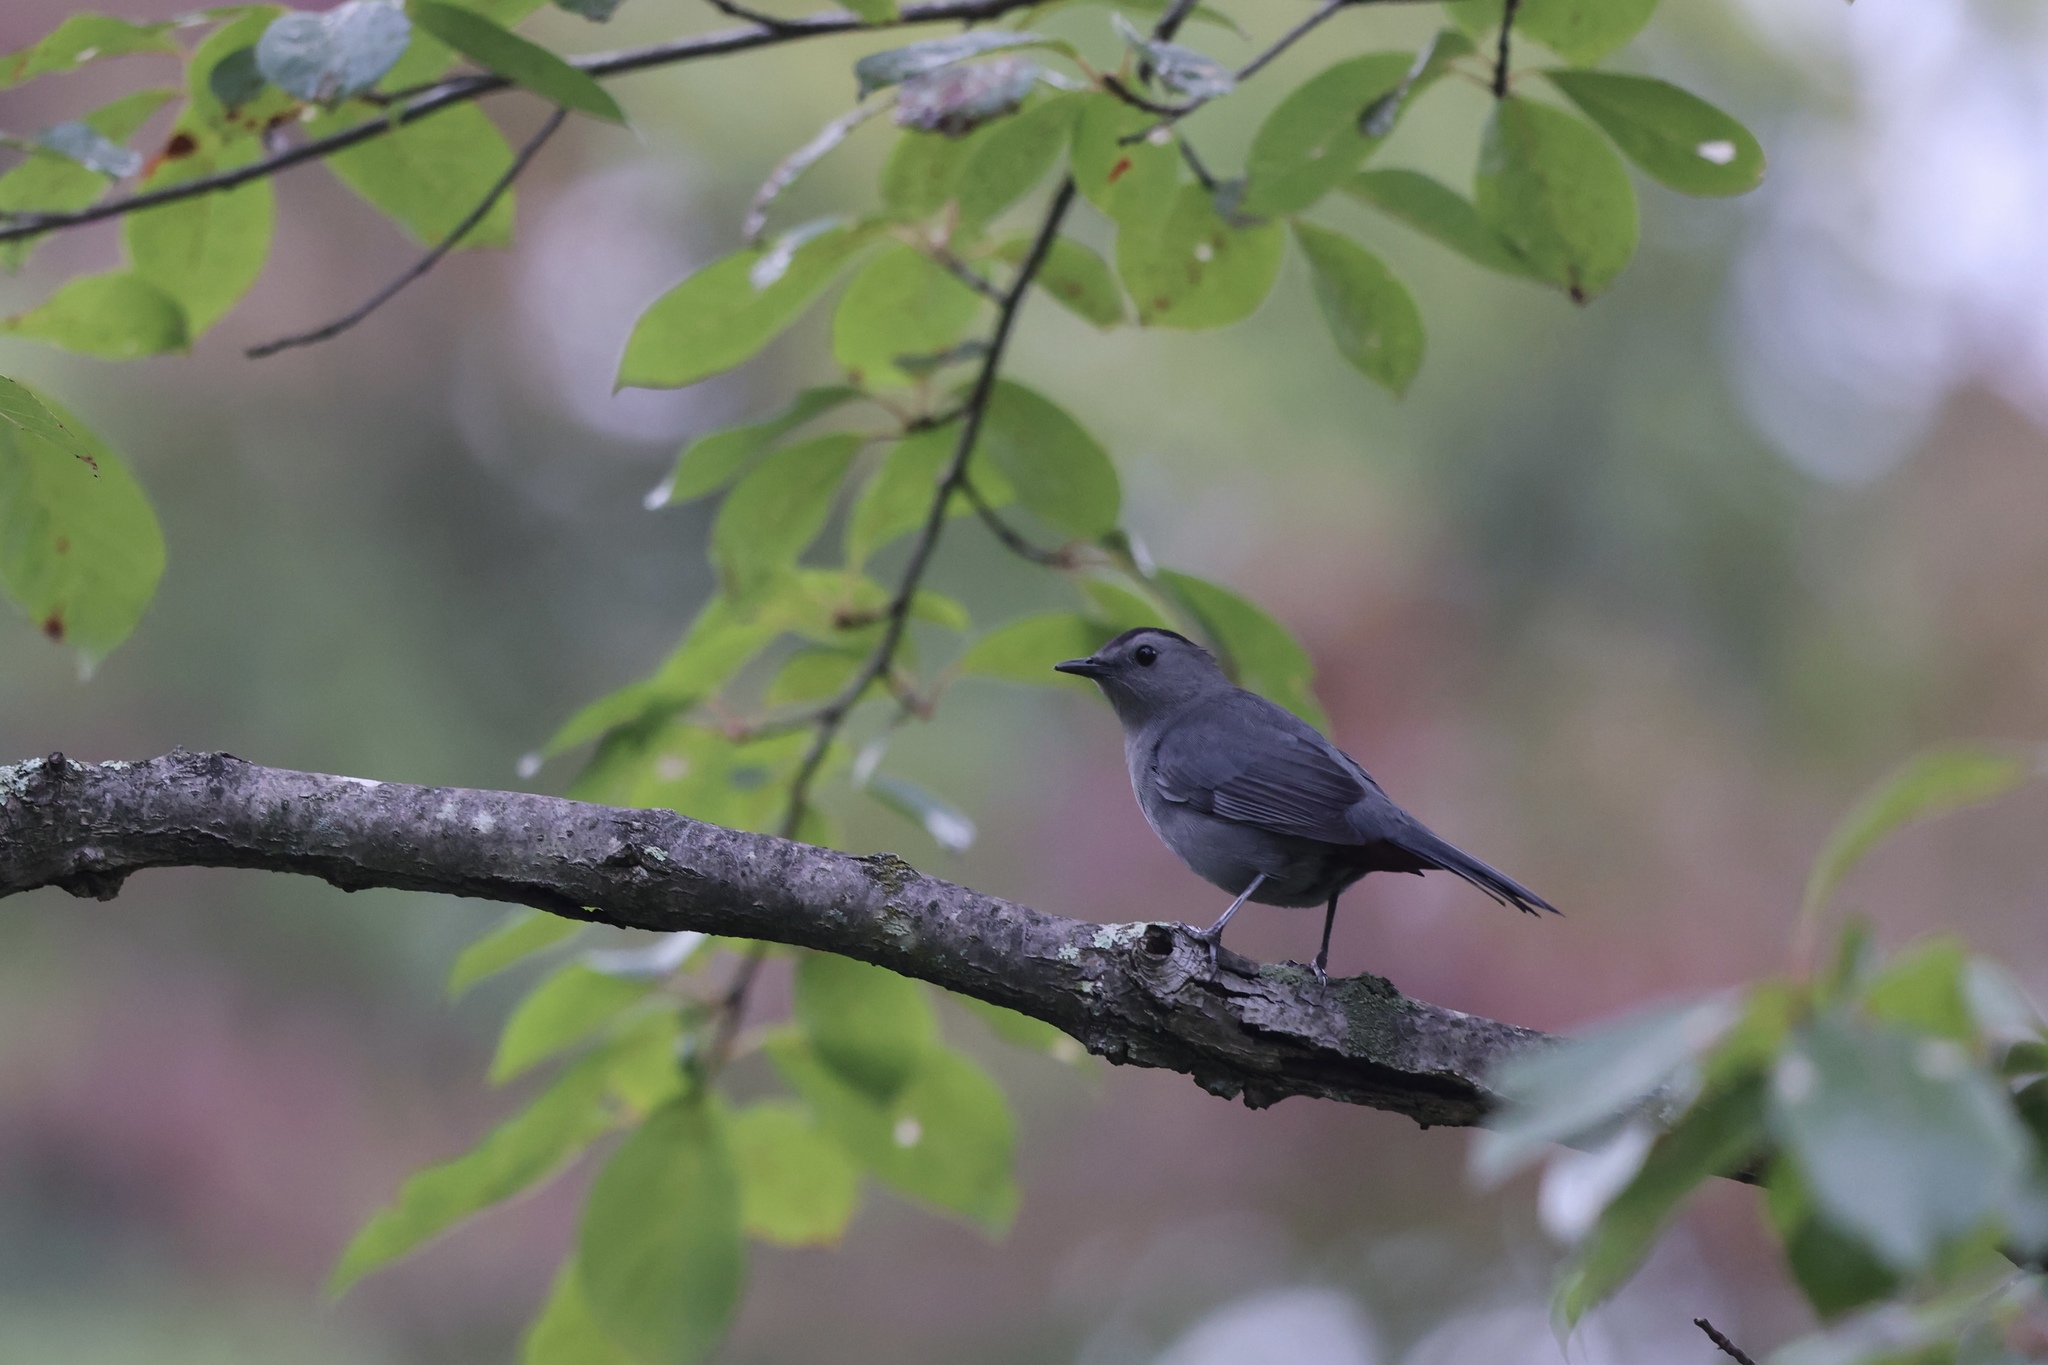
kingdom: Animalia
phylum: Chordata
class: Aves
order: Passeriformes
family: Mimidae
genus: Dumetella
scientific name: Dumetella carolinensis
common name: Gray catbird
